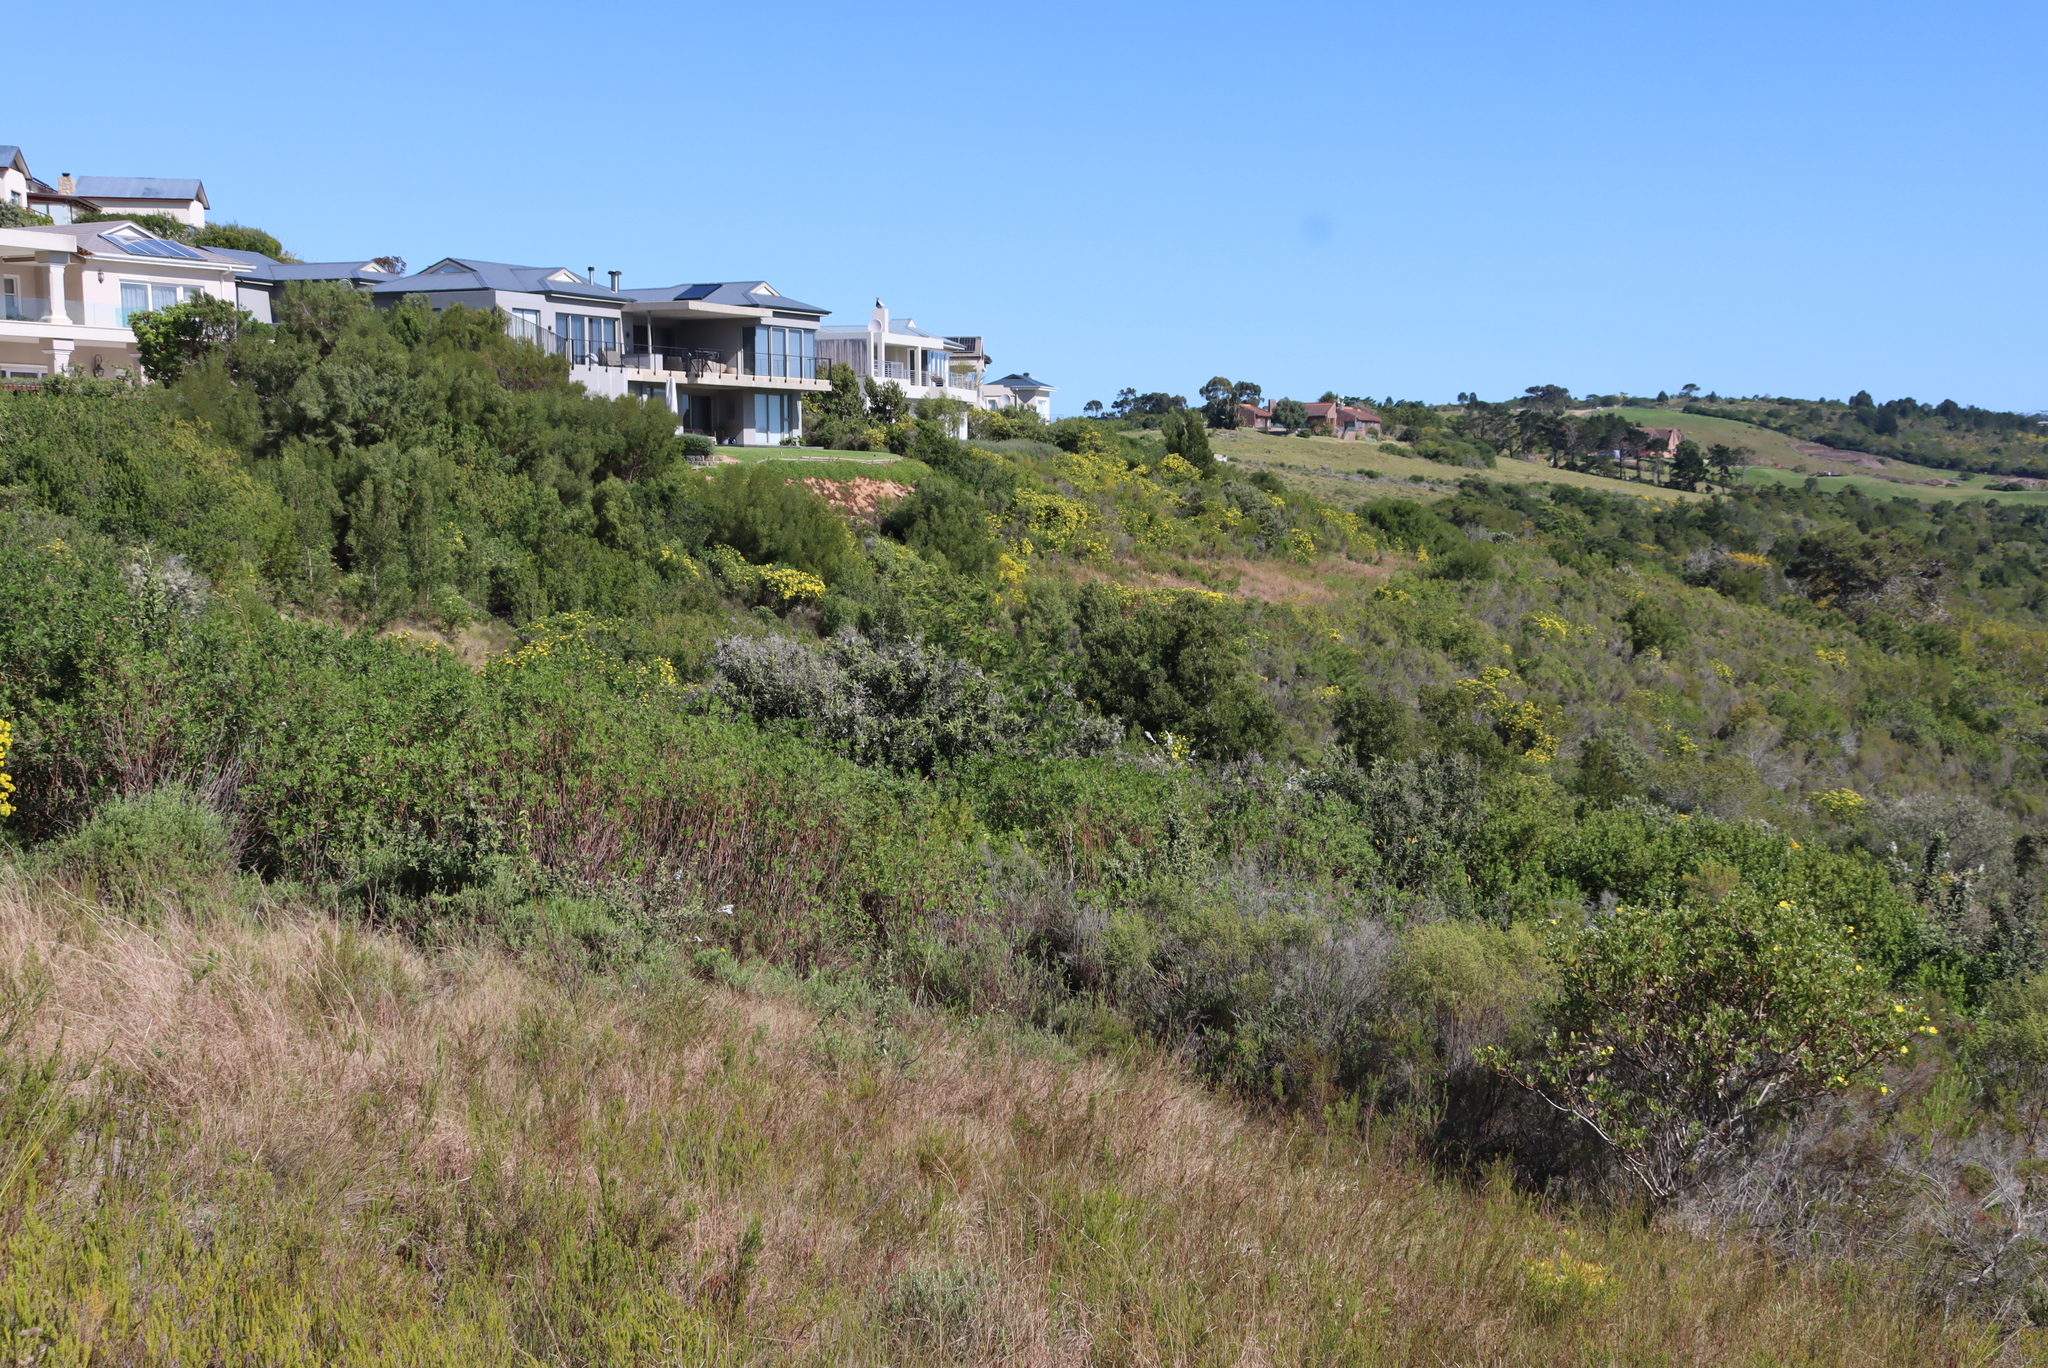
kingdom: Plantae
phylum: Tracheophyta
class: Magnoliopsida
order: Asterales
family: Asteraceae
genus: Euryops
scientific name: Euryops virgineus
